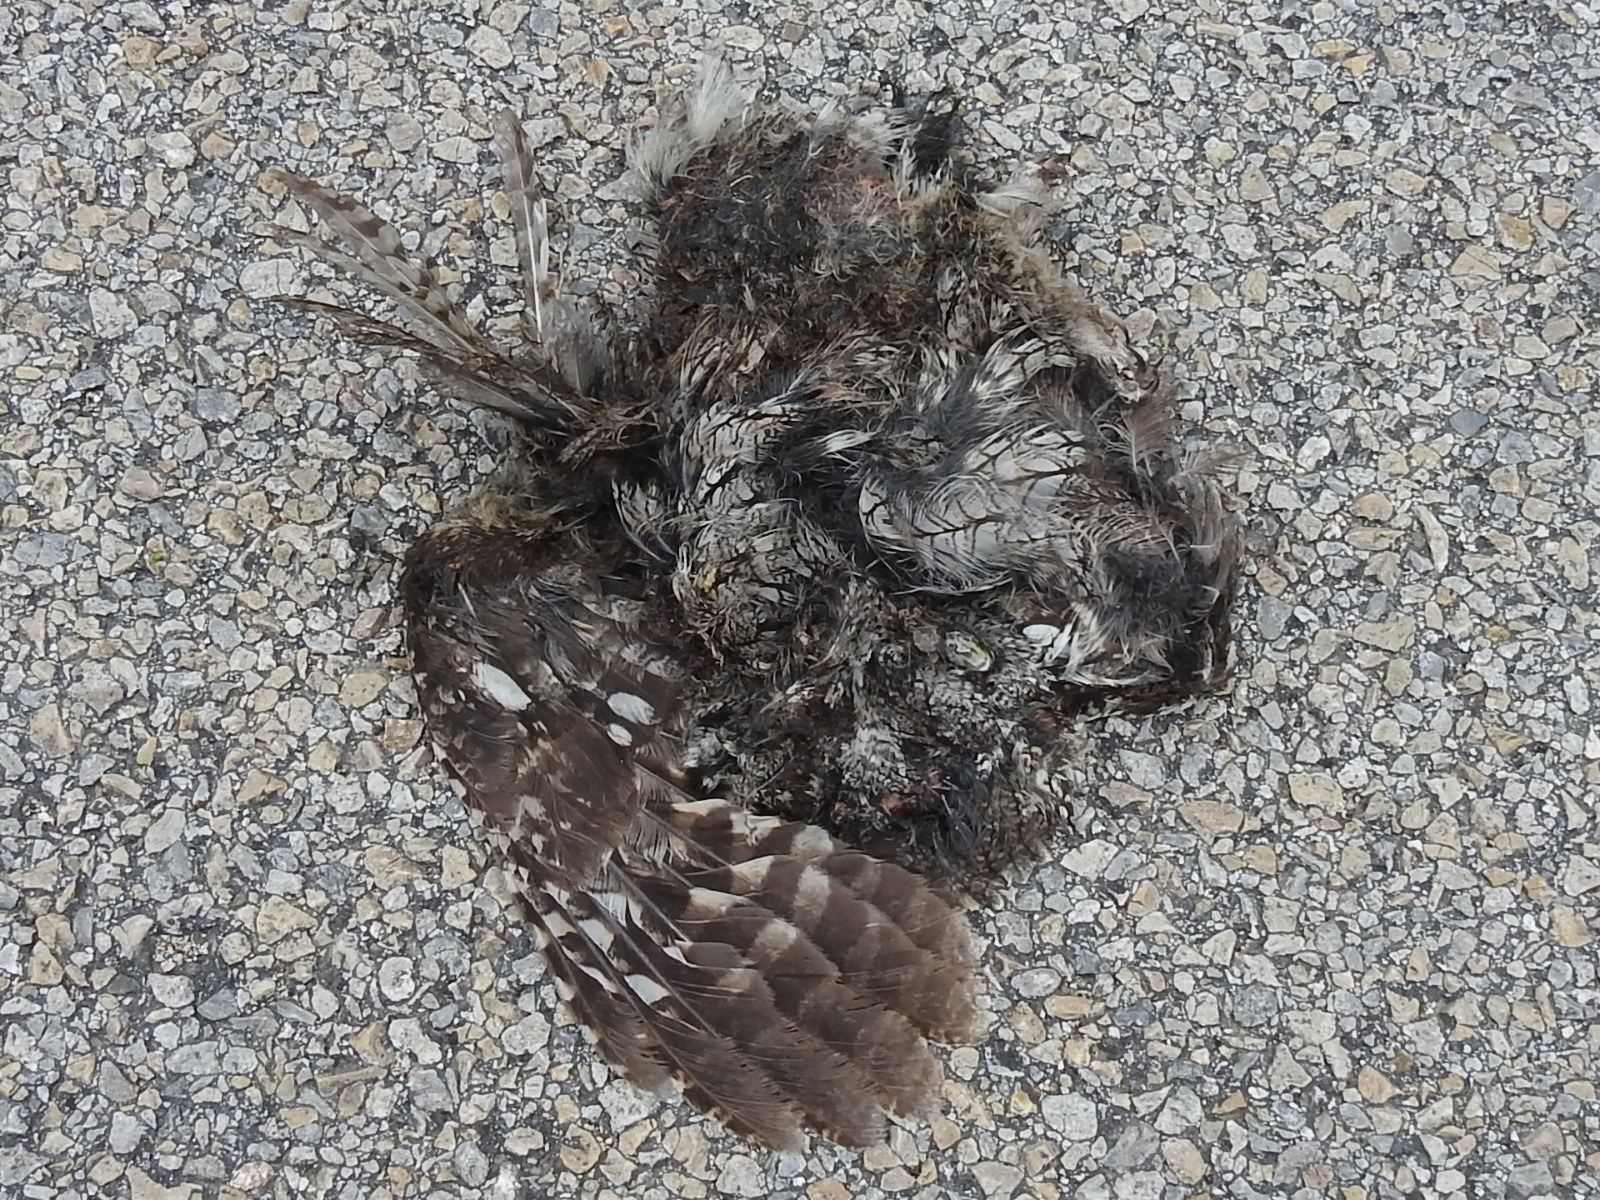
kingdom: Animalia
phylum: Chordata
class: Aves
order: Strigiformes
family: Strigidae
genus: Megascops
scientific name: Megascops asio
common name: Eastern screech-owl
